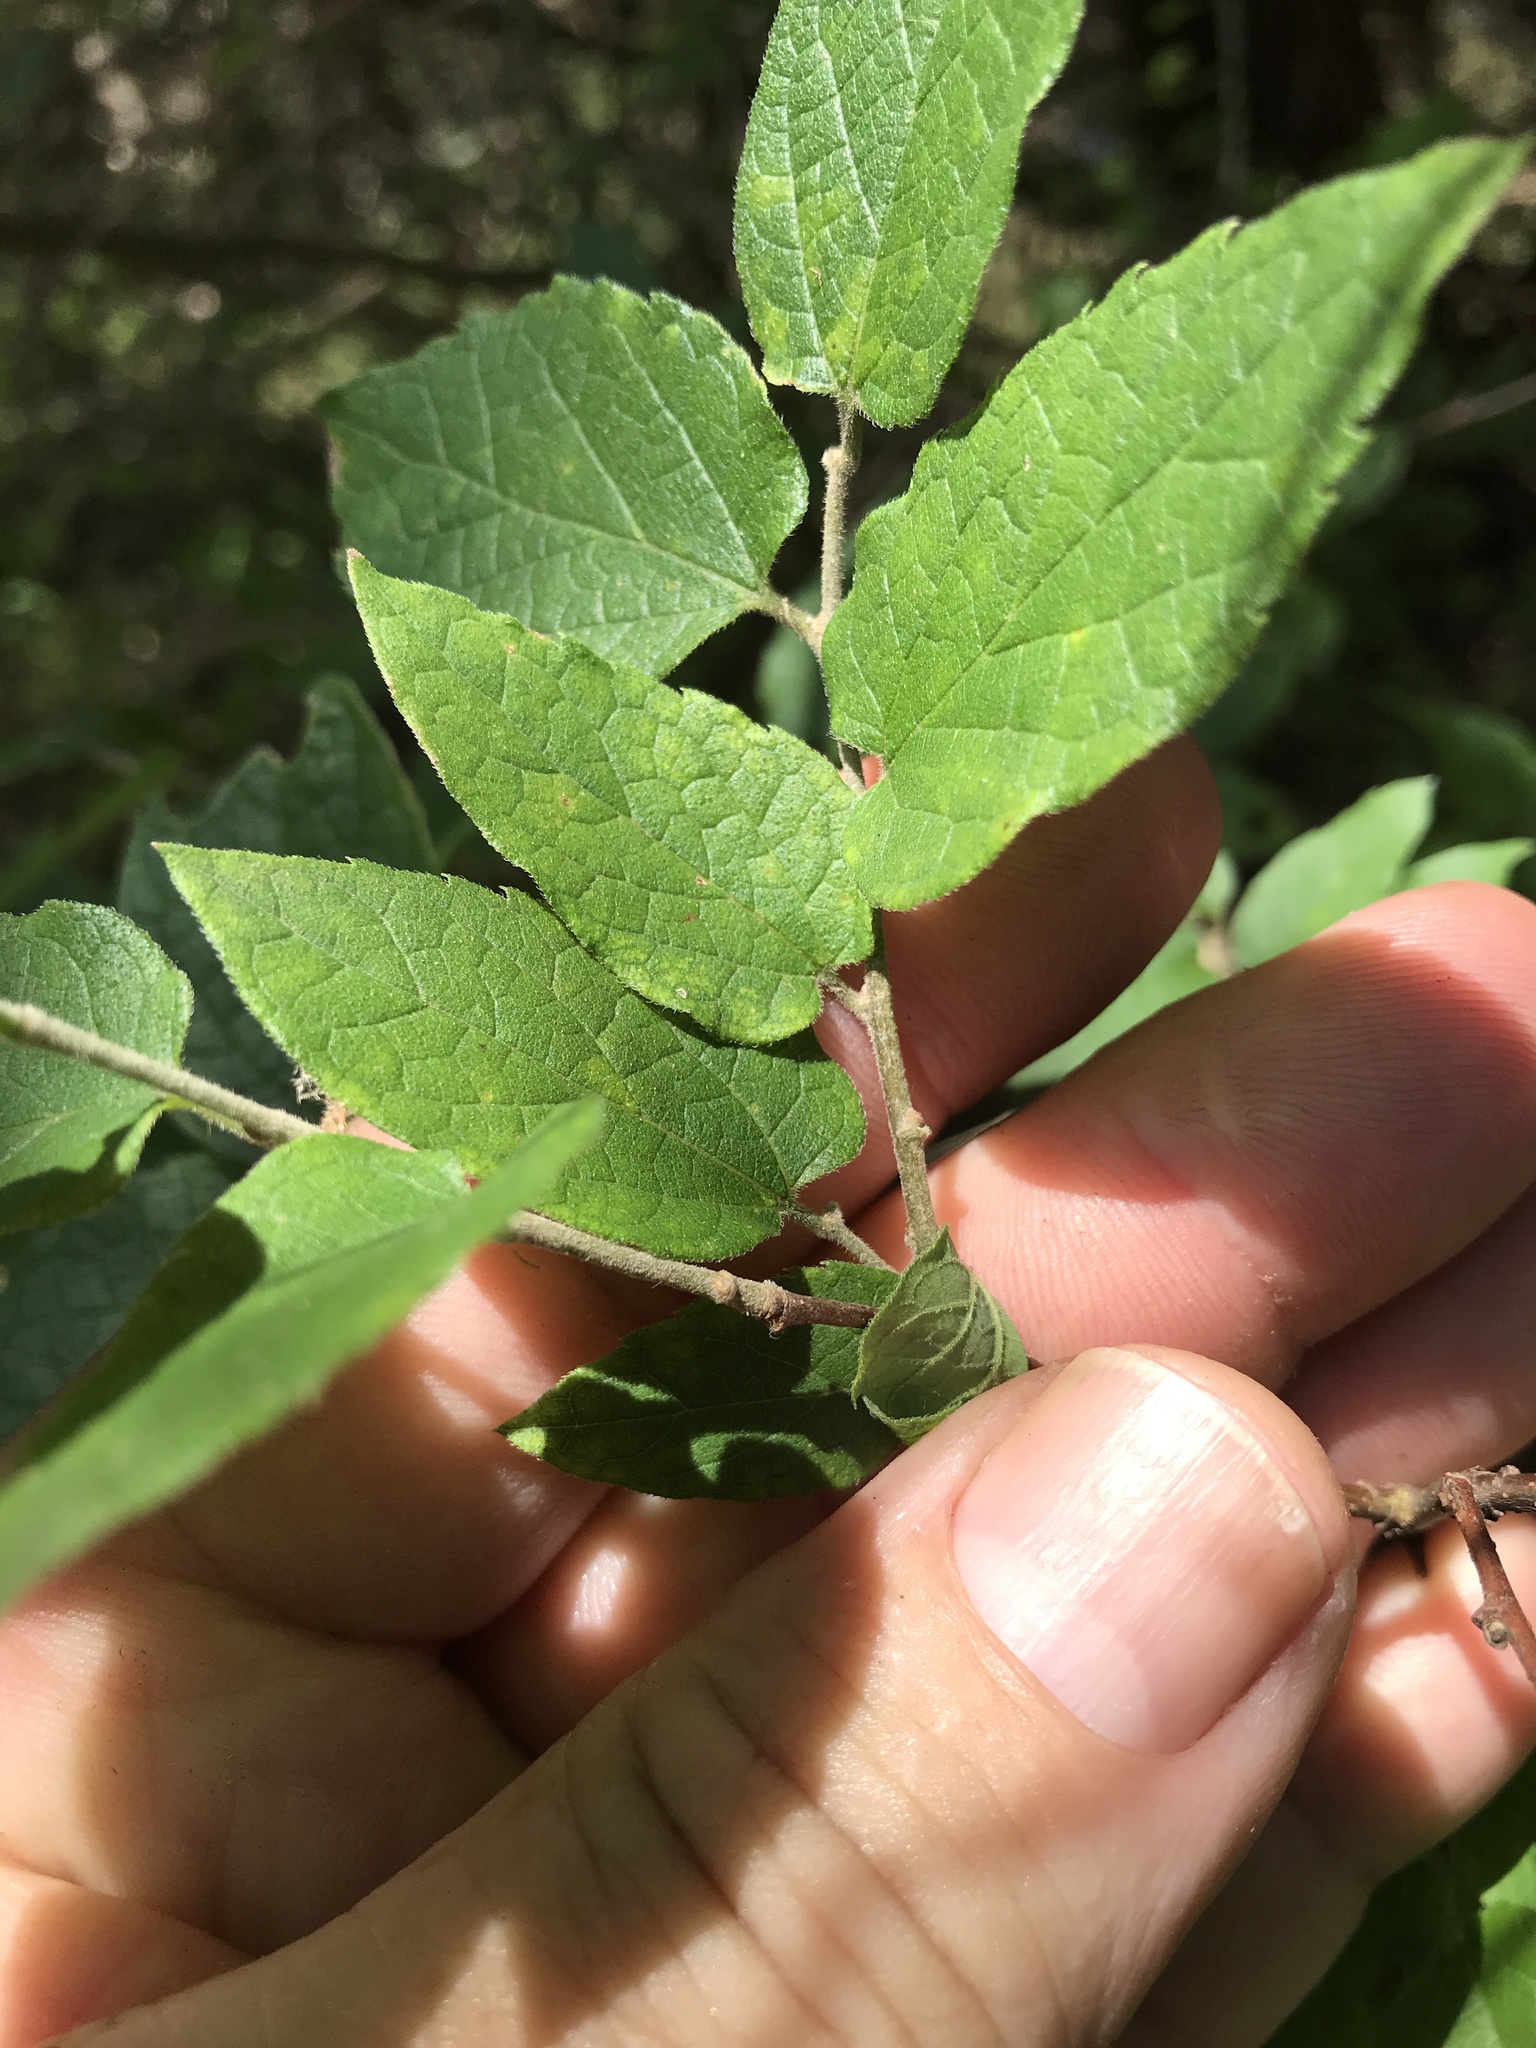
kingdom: Plantae
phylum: Tracheophyta
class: Magnoliopsida
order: Rosales
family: Cannabaceae
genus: Celtis
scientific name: Celtis reticulata
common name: Netleaf hackberry
